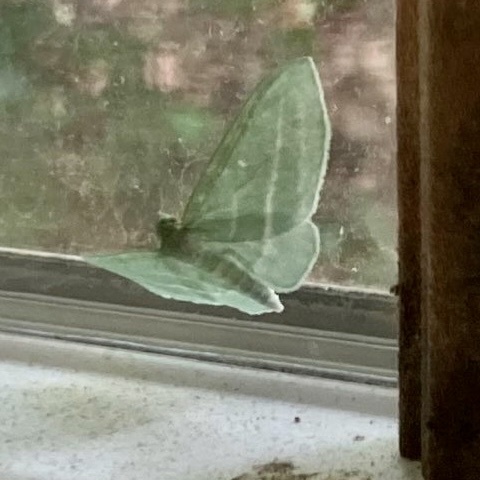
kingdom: Animalia
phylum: Arthropoda
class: Insecta
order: Lepidoptera
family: Geometridae
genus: Dyspteris
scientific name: Dyspteris abortivaria
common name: Bad-wing
